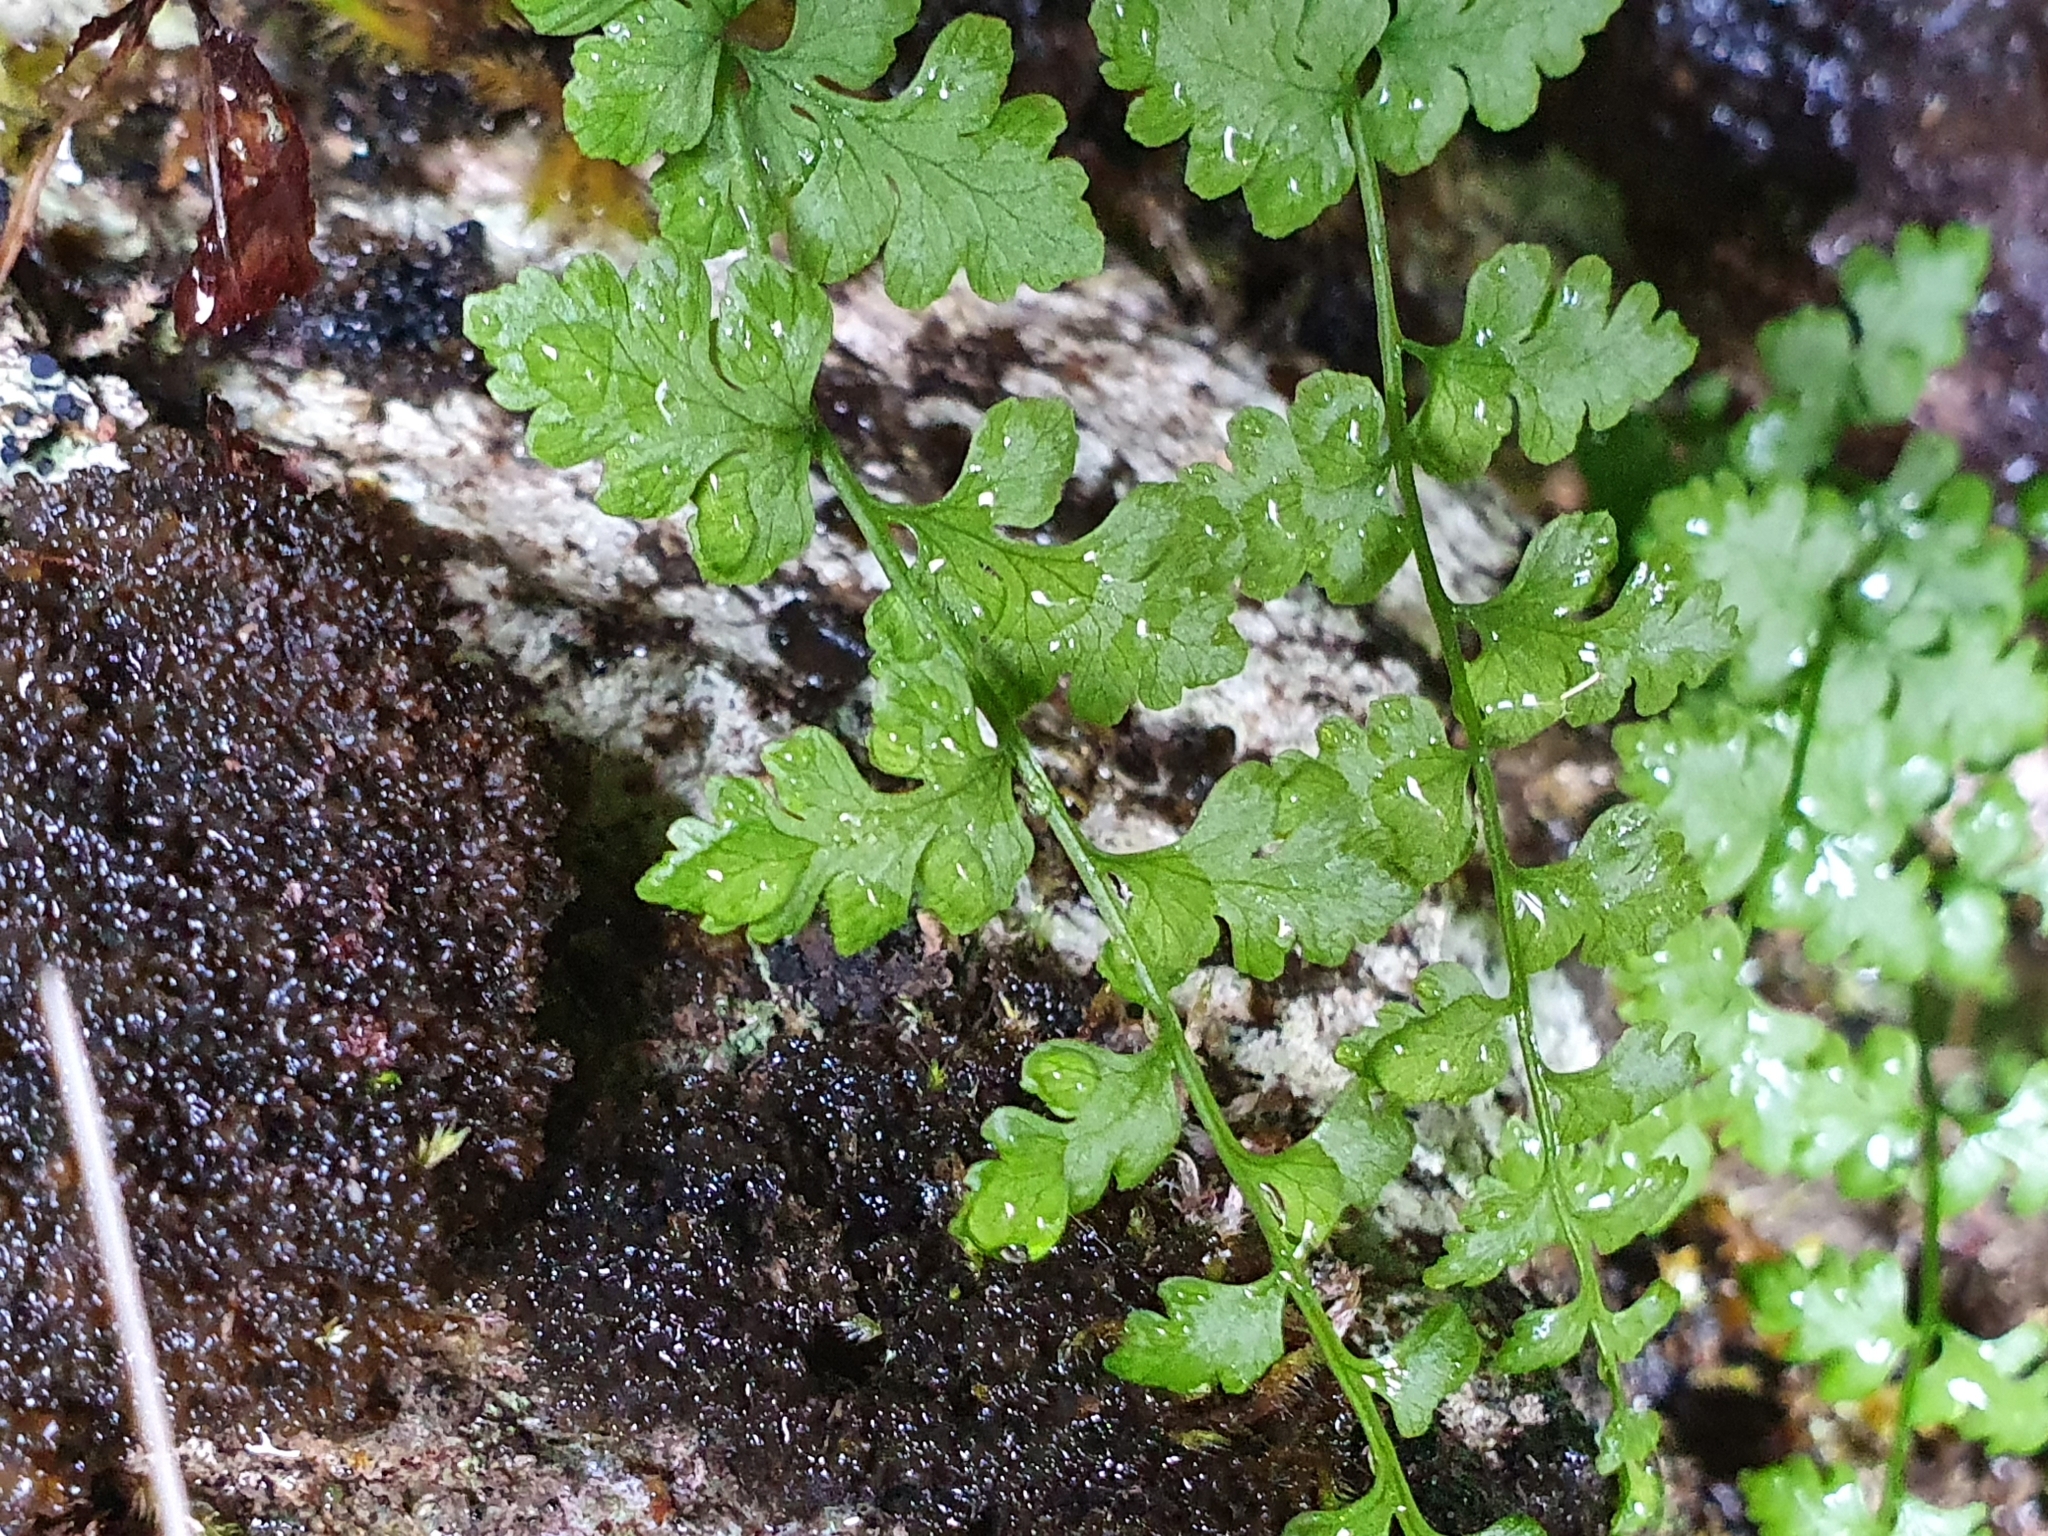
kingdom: Plantae
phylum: Tracheophyta
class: Polypodiopsida
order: Polypodiales
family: Cystopteridaceae
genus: Cystopteris
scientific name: Cystopteris tasmanica
